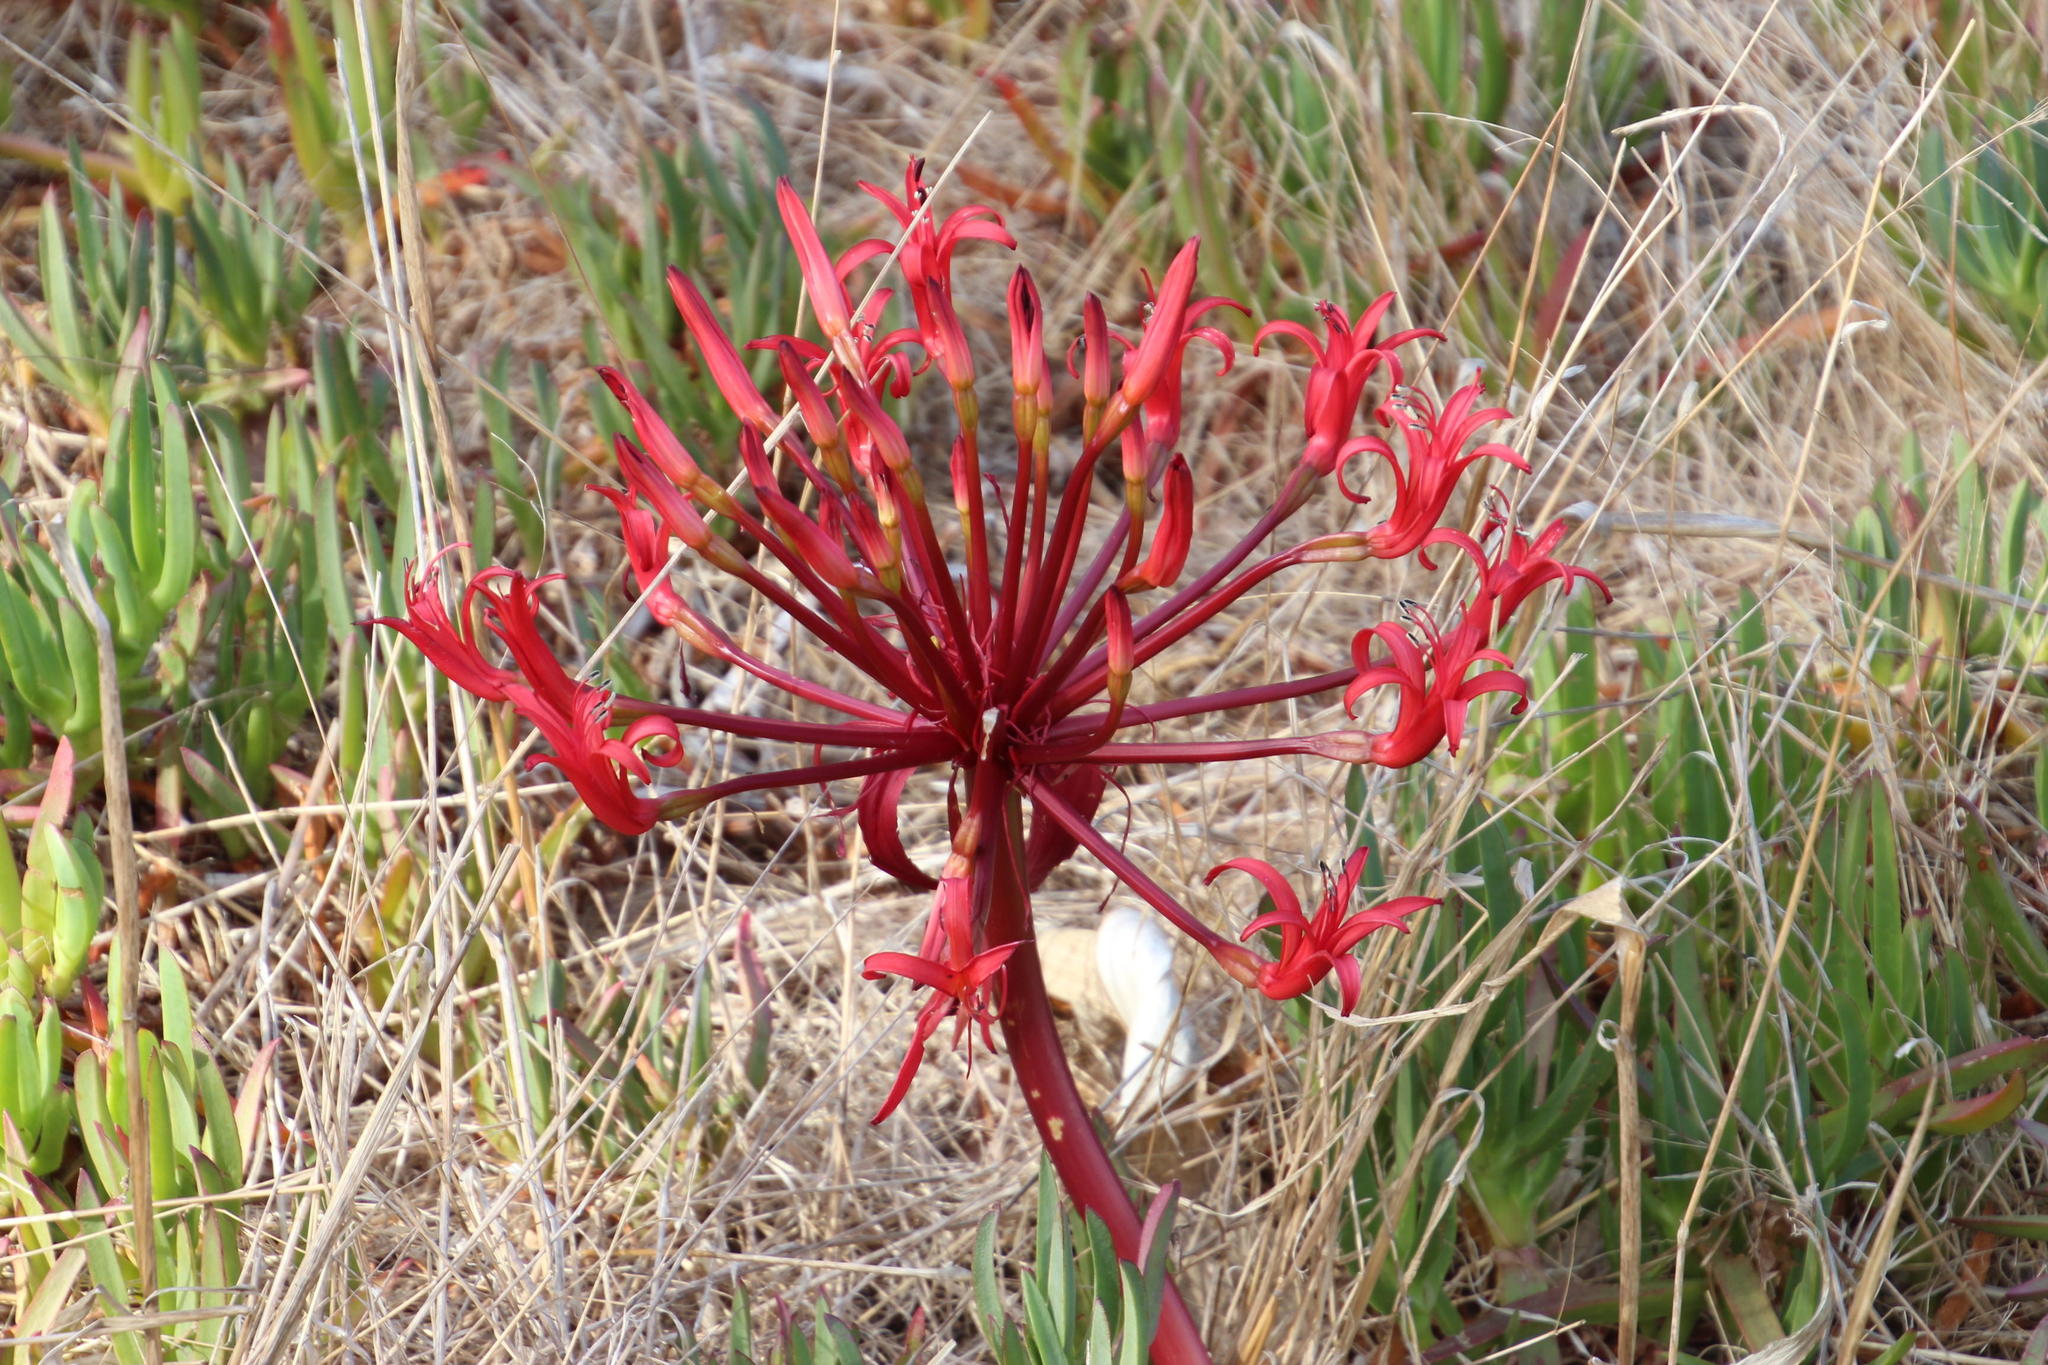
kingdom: Plantae
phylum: Tracheophyta
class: Liliopsida
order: Asparagales
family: Amaryllidaceae
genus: Brunsvigia
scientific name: Brunsvigia orientalis
